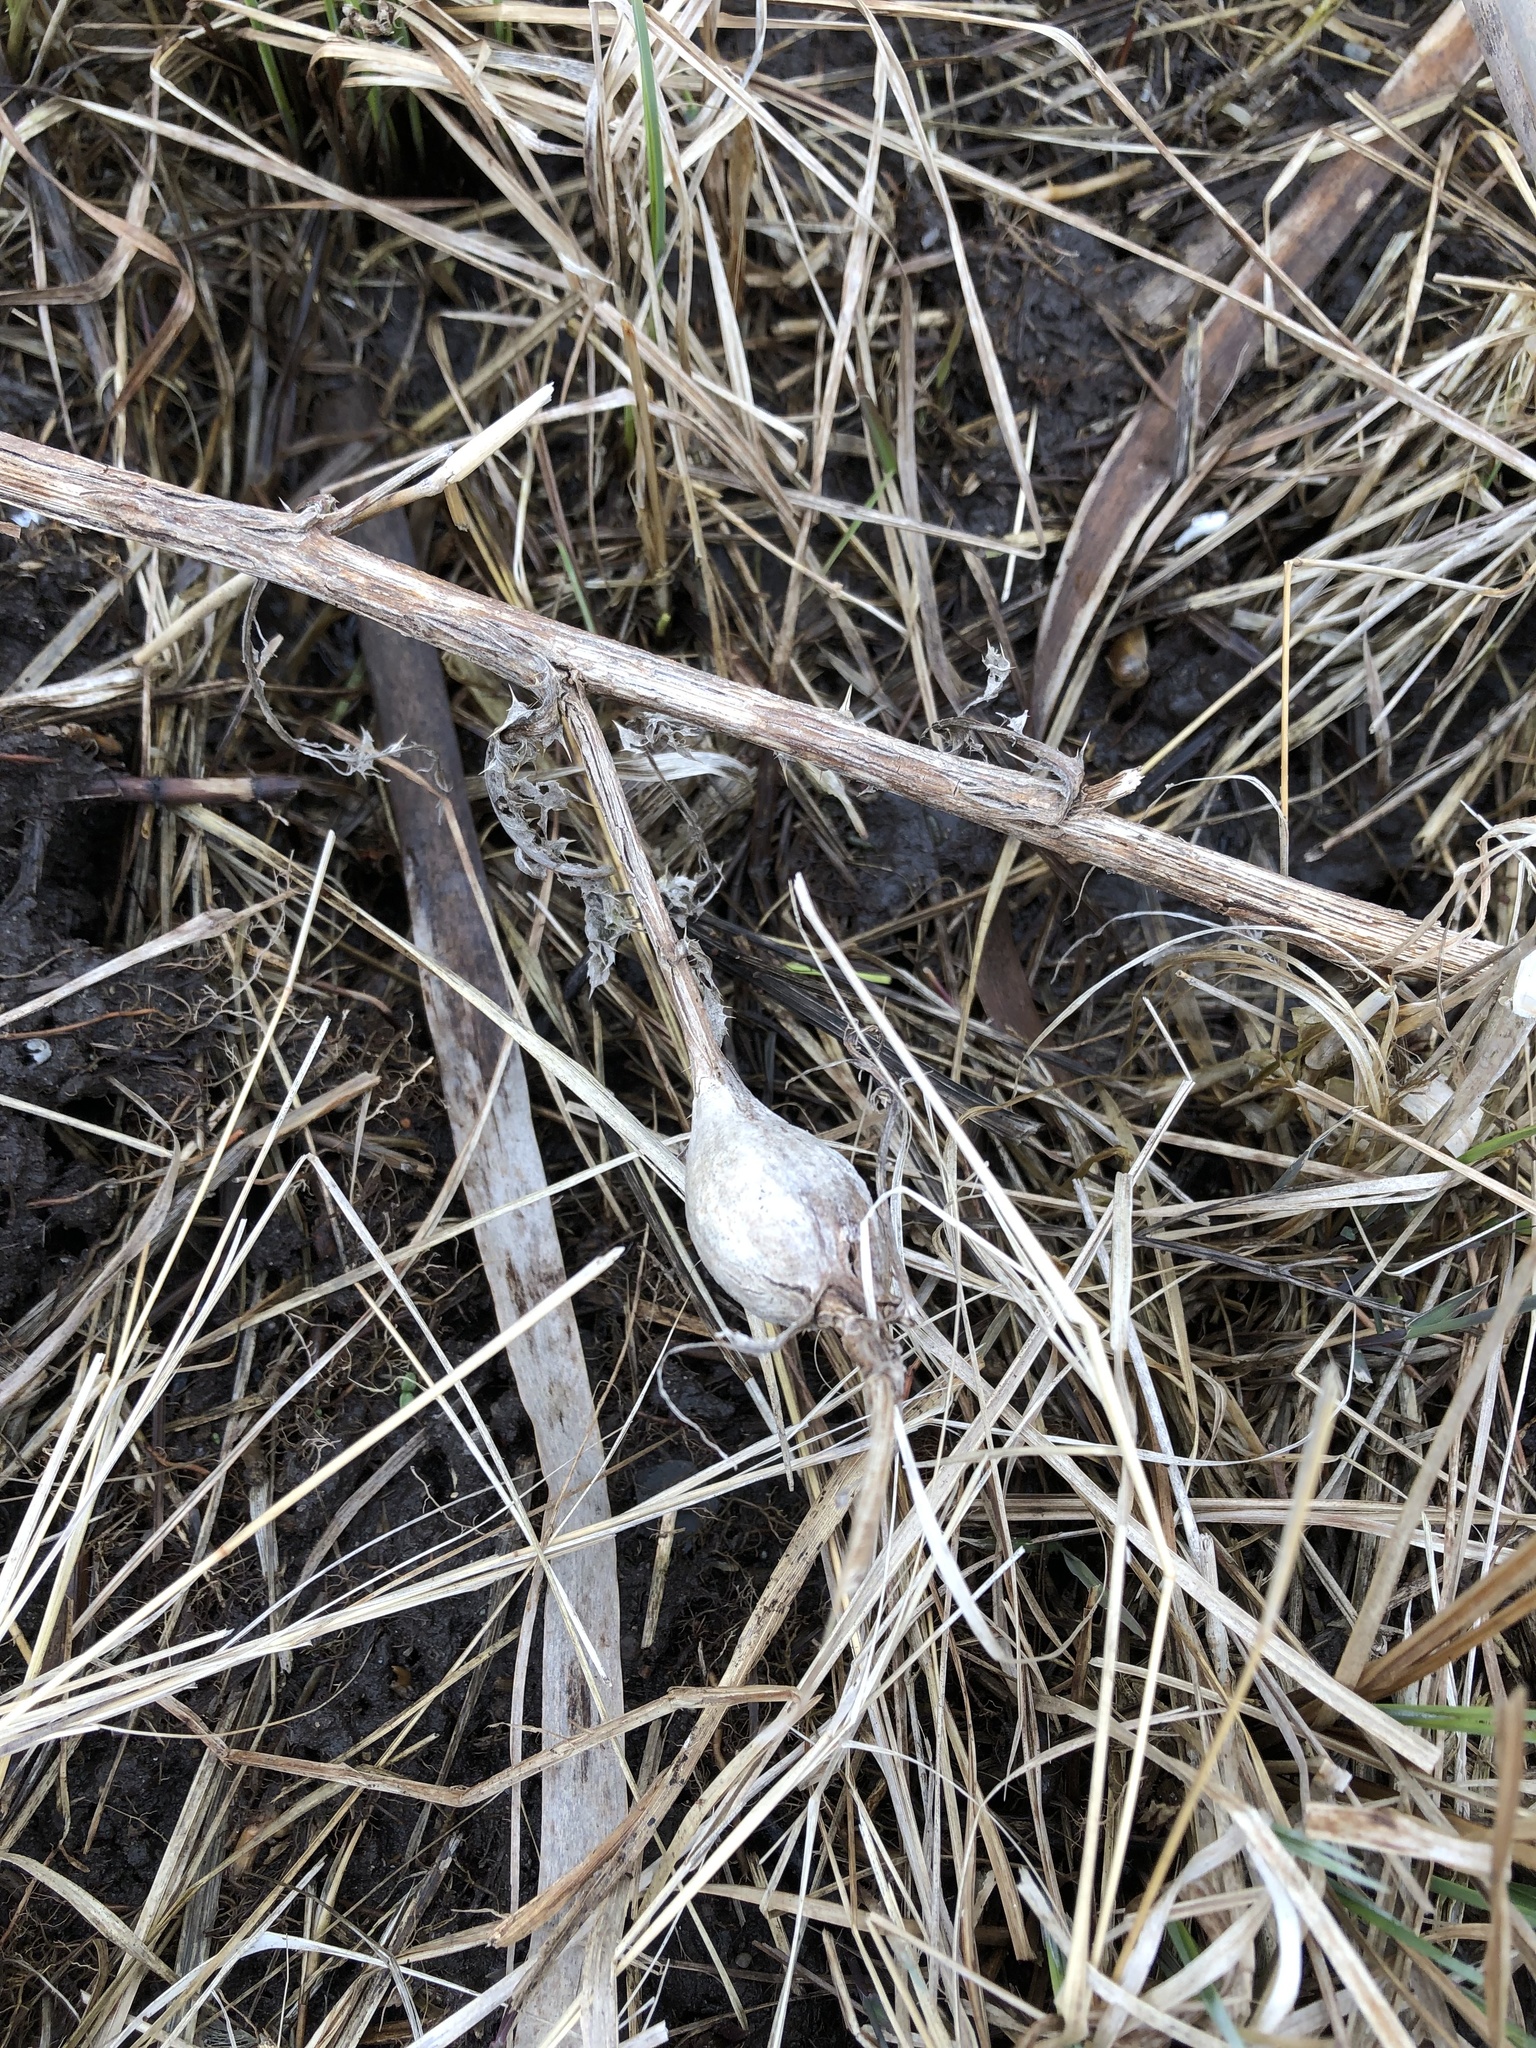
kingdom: Animalia
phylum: Arthropoda
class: Insecta
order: Diptera
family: Tephritidae
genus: Eurosta
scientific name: Eurosta solidaginis
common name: Goldenrod gall fly
